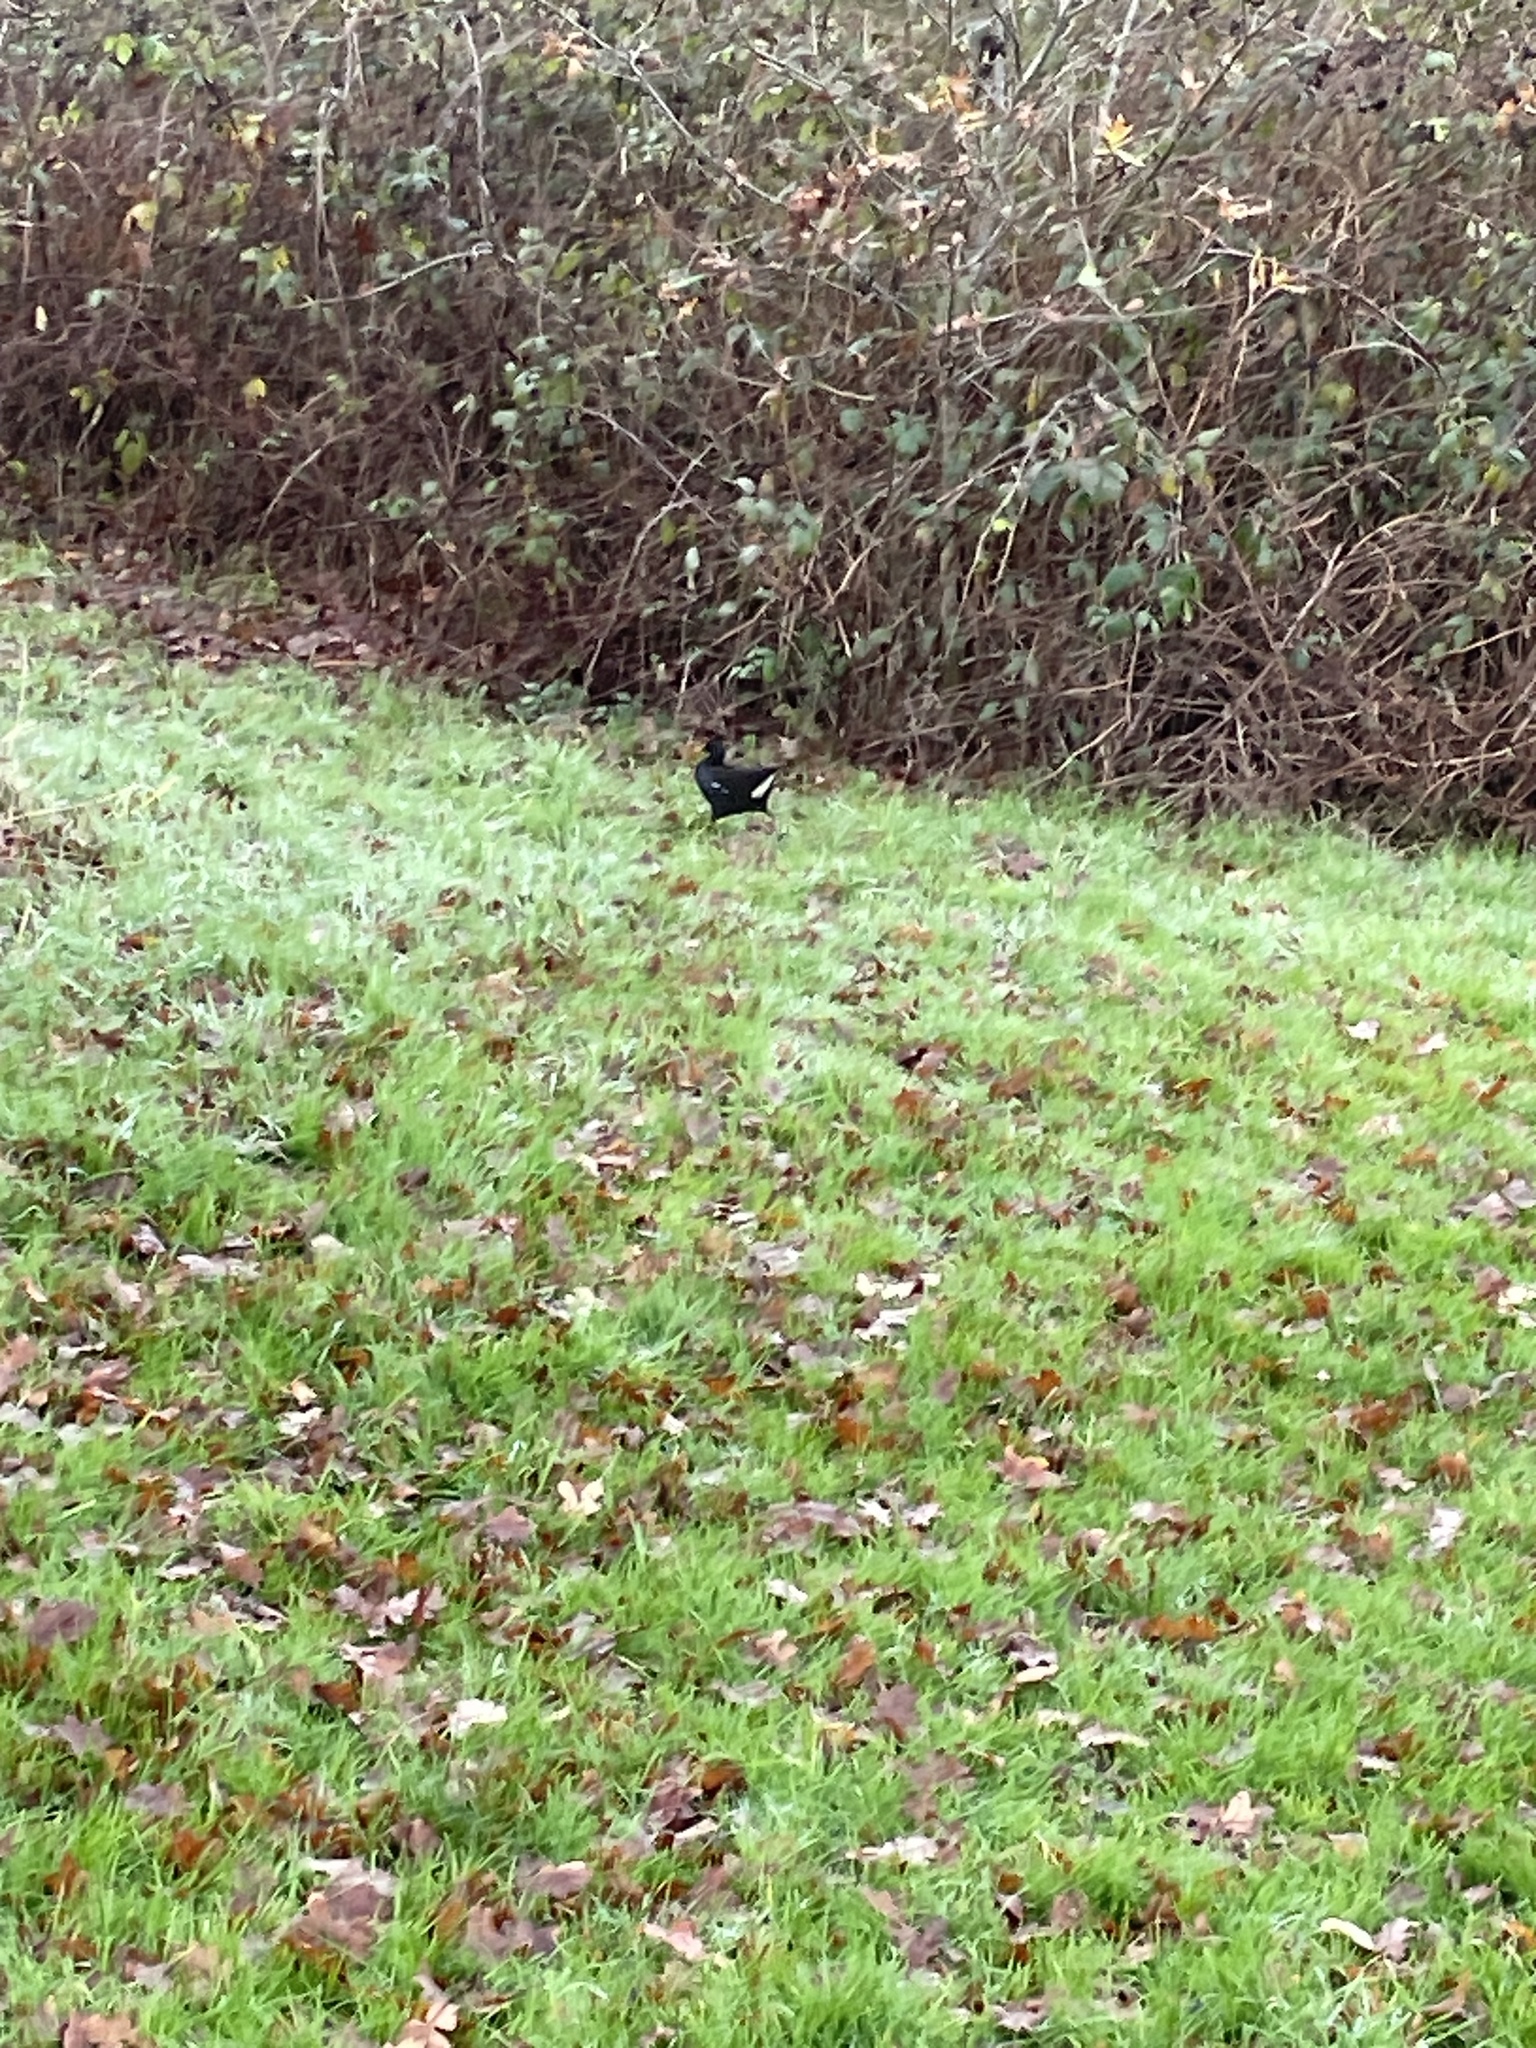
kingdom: Animalia
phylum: Chordata
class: Aves
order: Gruiformes
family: Rallidae
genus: Gallinula
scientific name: Gallinula chloropus
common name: Common moorhen
